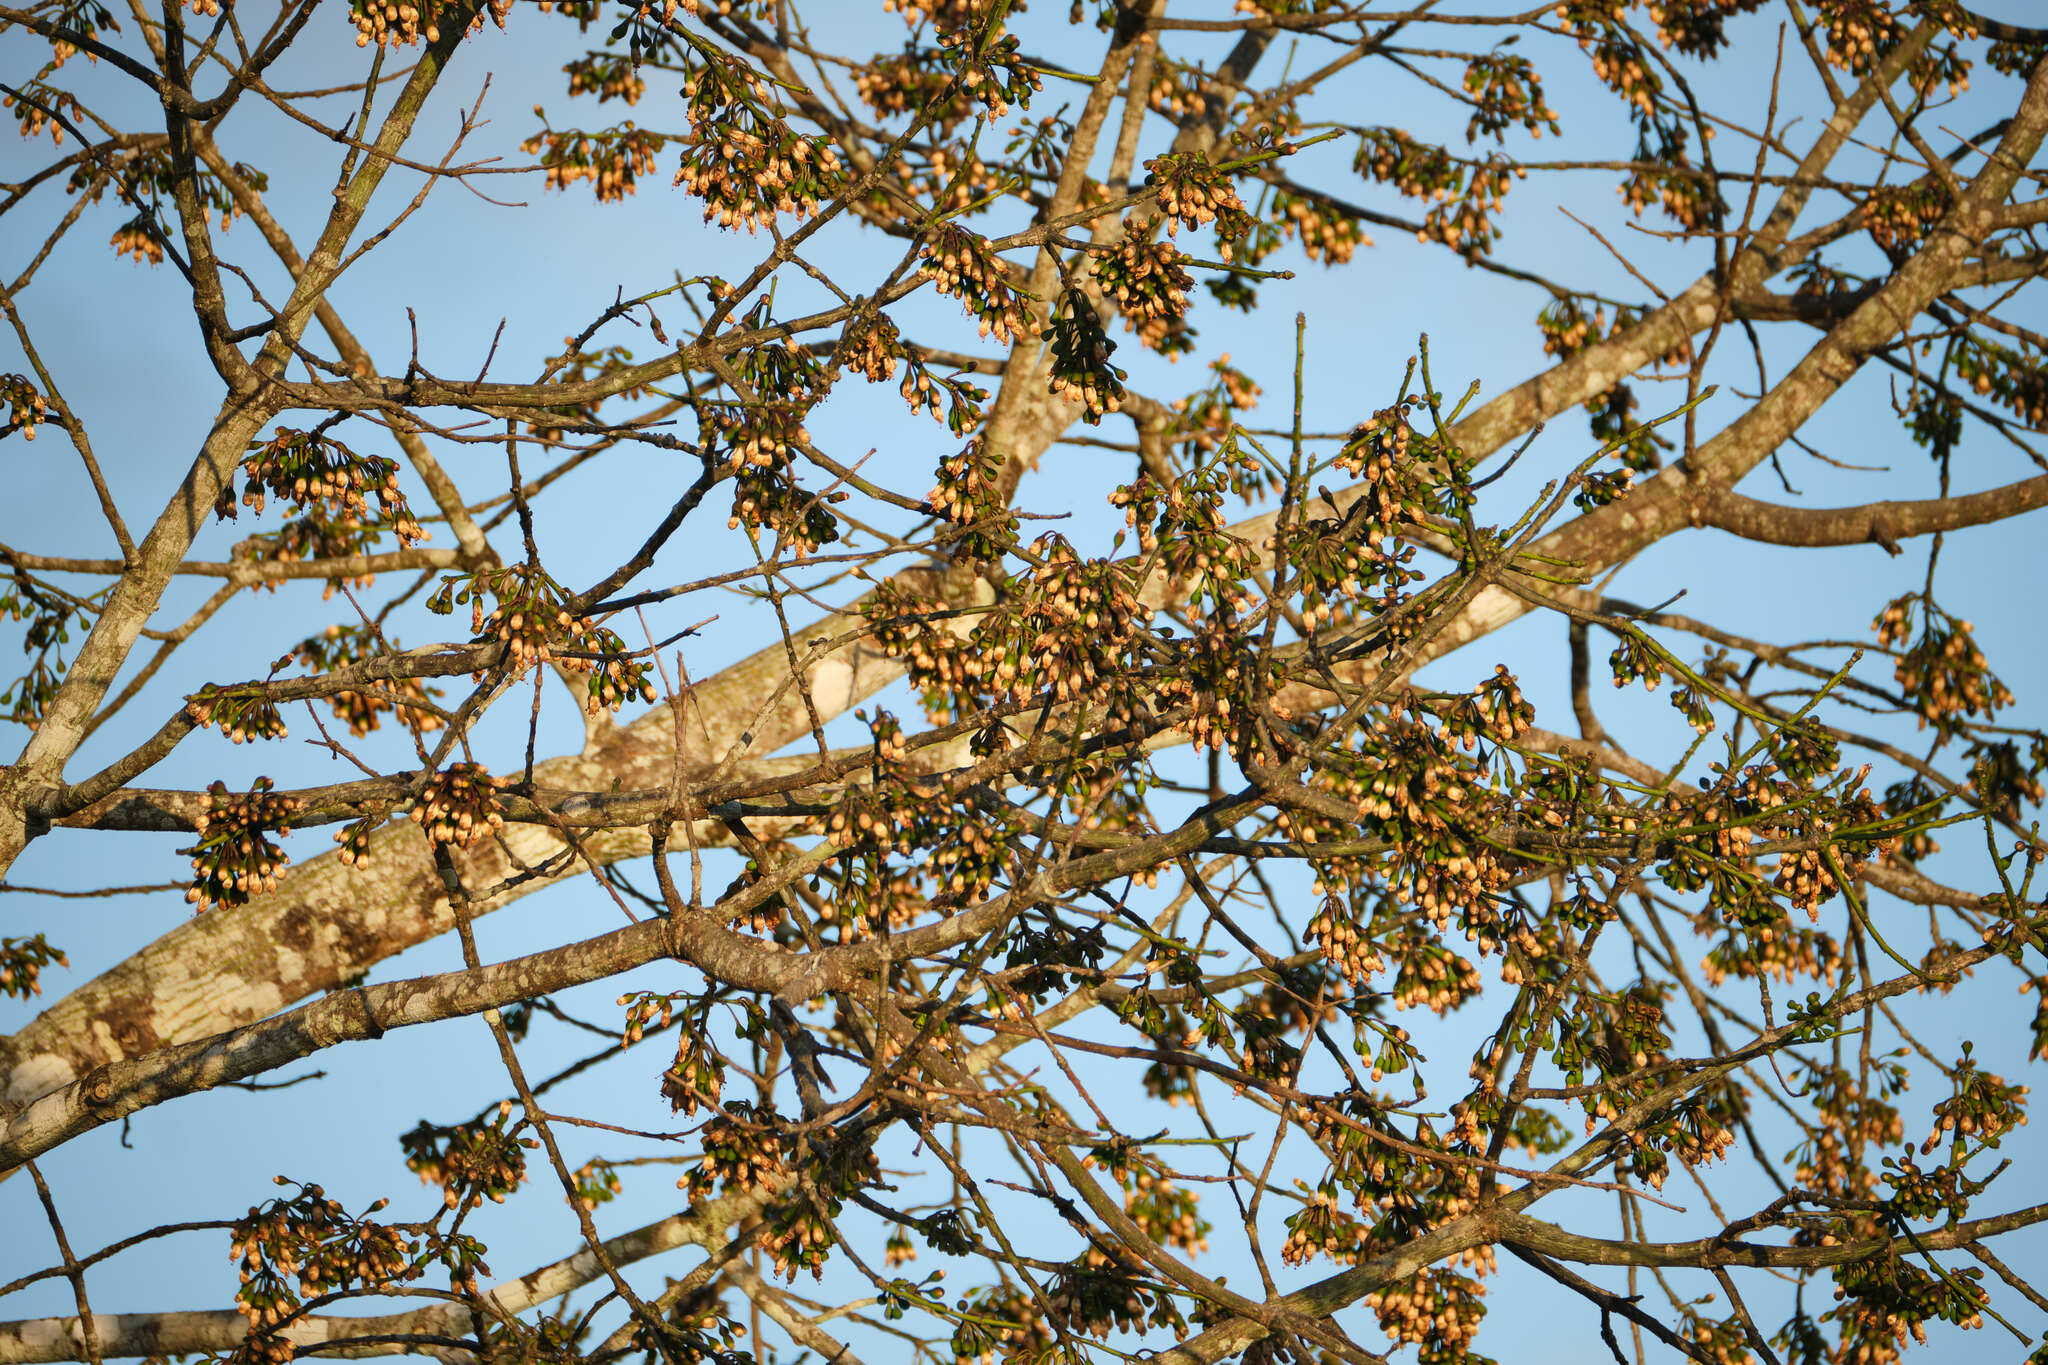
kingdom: Plantae
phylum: Tracheophyta
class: Magnoliopsida
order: Malvales
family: Malvaceae
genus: Ceiba
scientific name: Ceiba pentandra
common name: Kapok
